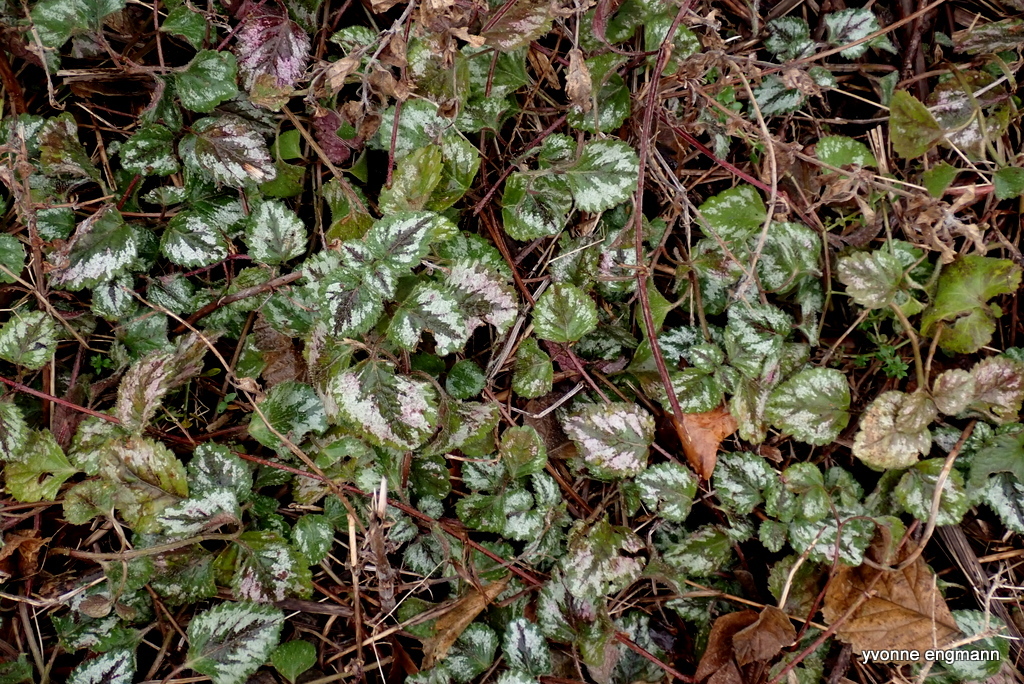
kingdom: Plantae
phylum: Tracheophyta
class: Magnoliopsida
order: Lamiales
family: Lamiaceae
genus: Lamium
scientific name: Lamium galeobdolon
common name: Yellow archangel
